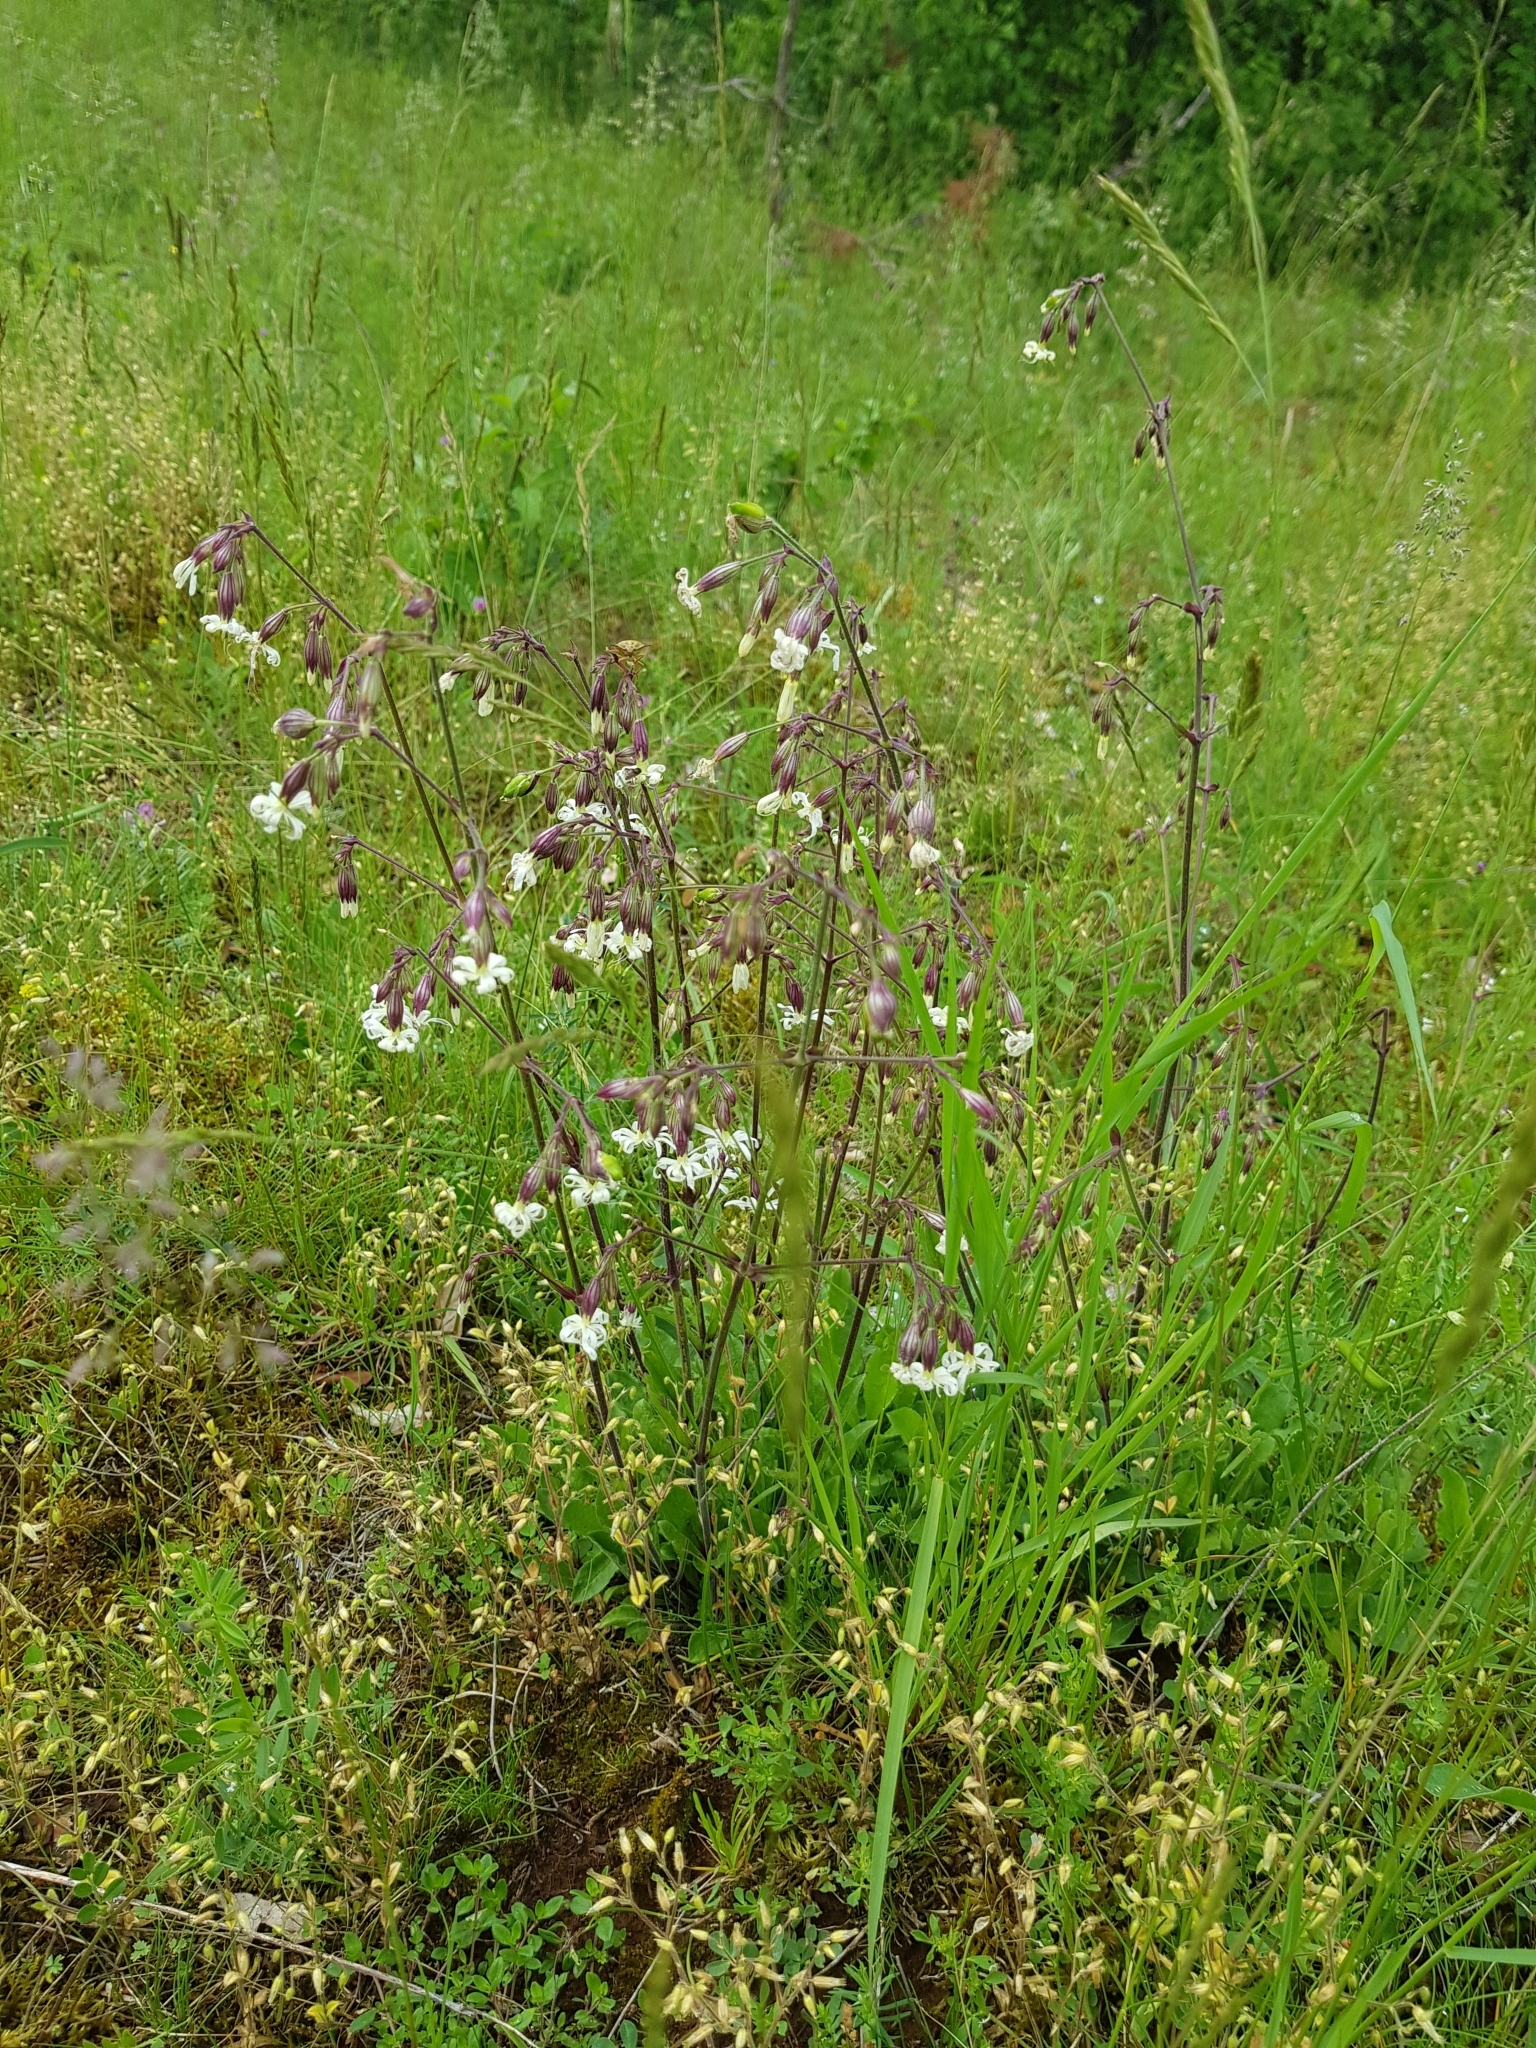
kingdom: Plantae
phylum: Tracheophyta
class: Magnoliopsida
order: Caryophyllales
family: Caryophyllaceae
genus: Silene
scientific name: Silene nutans
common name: Nottingham catchfly
